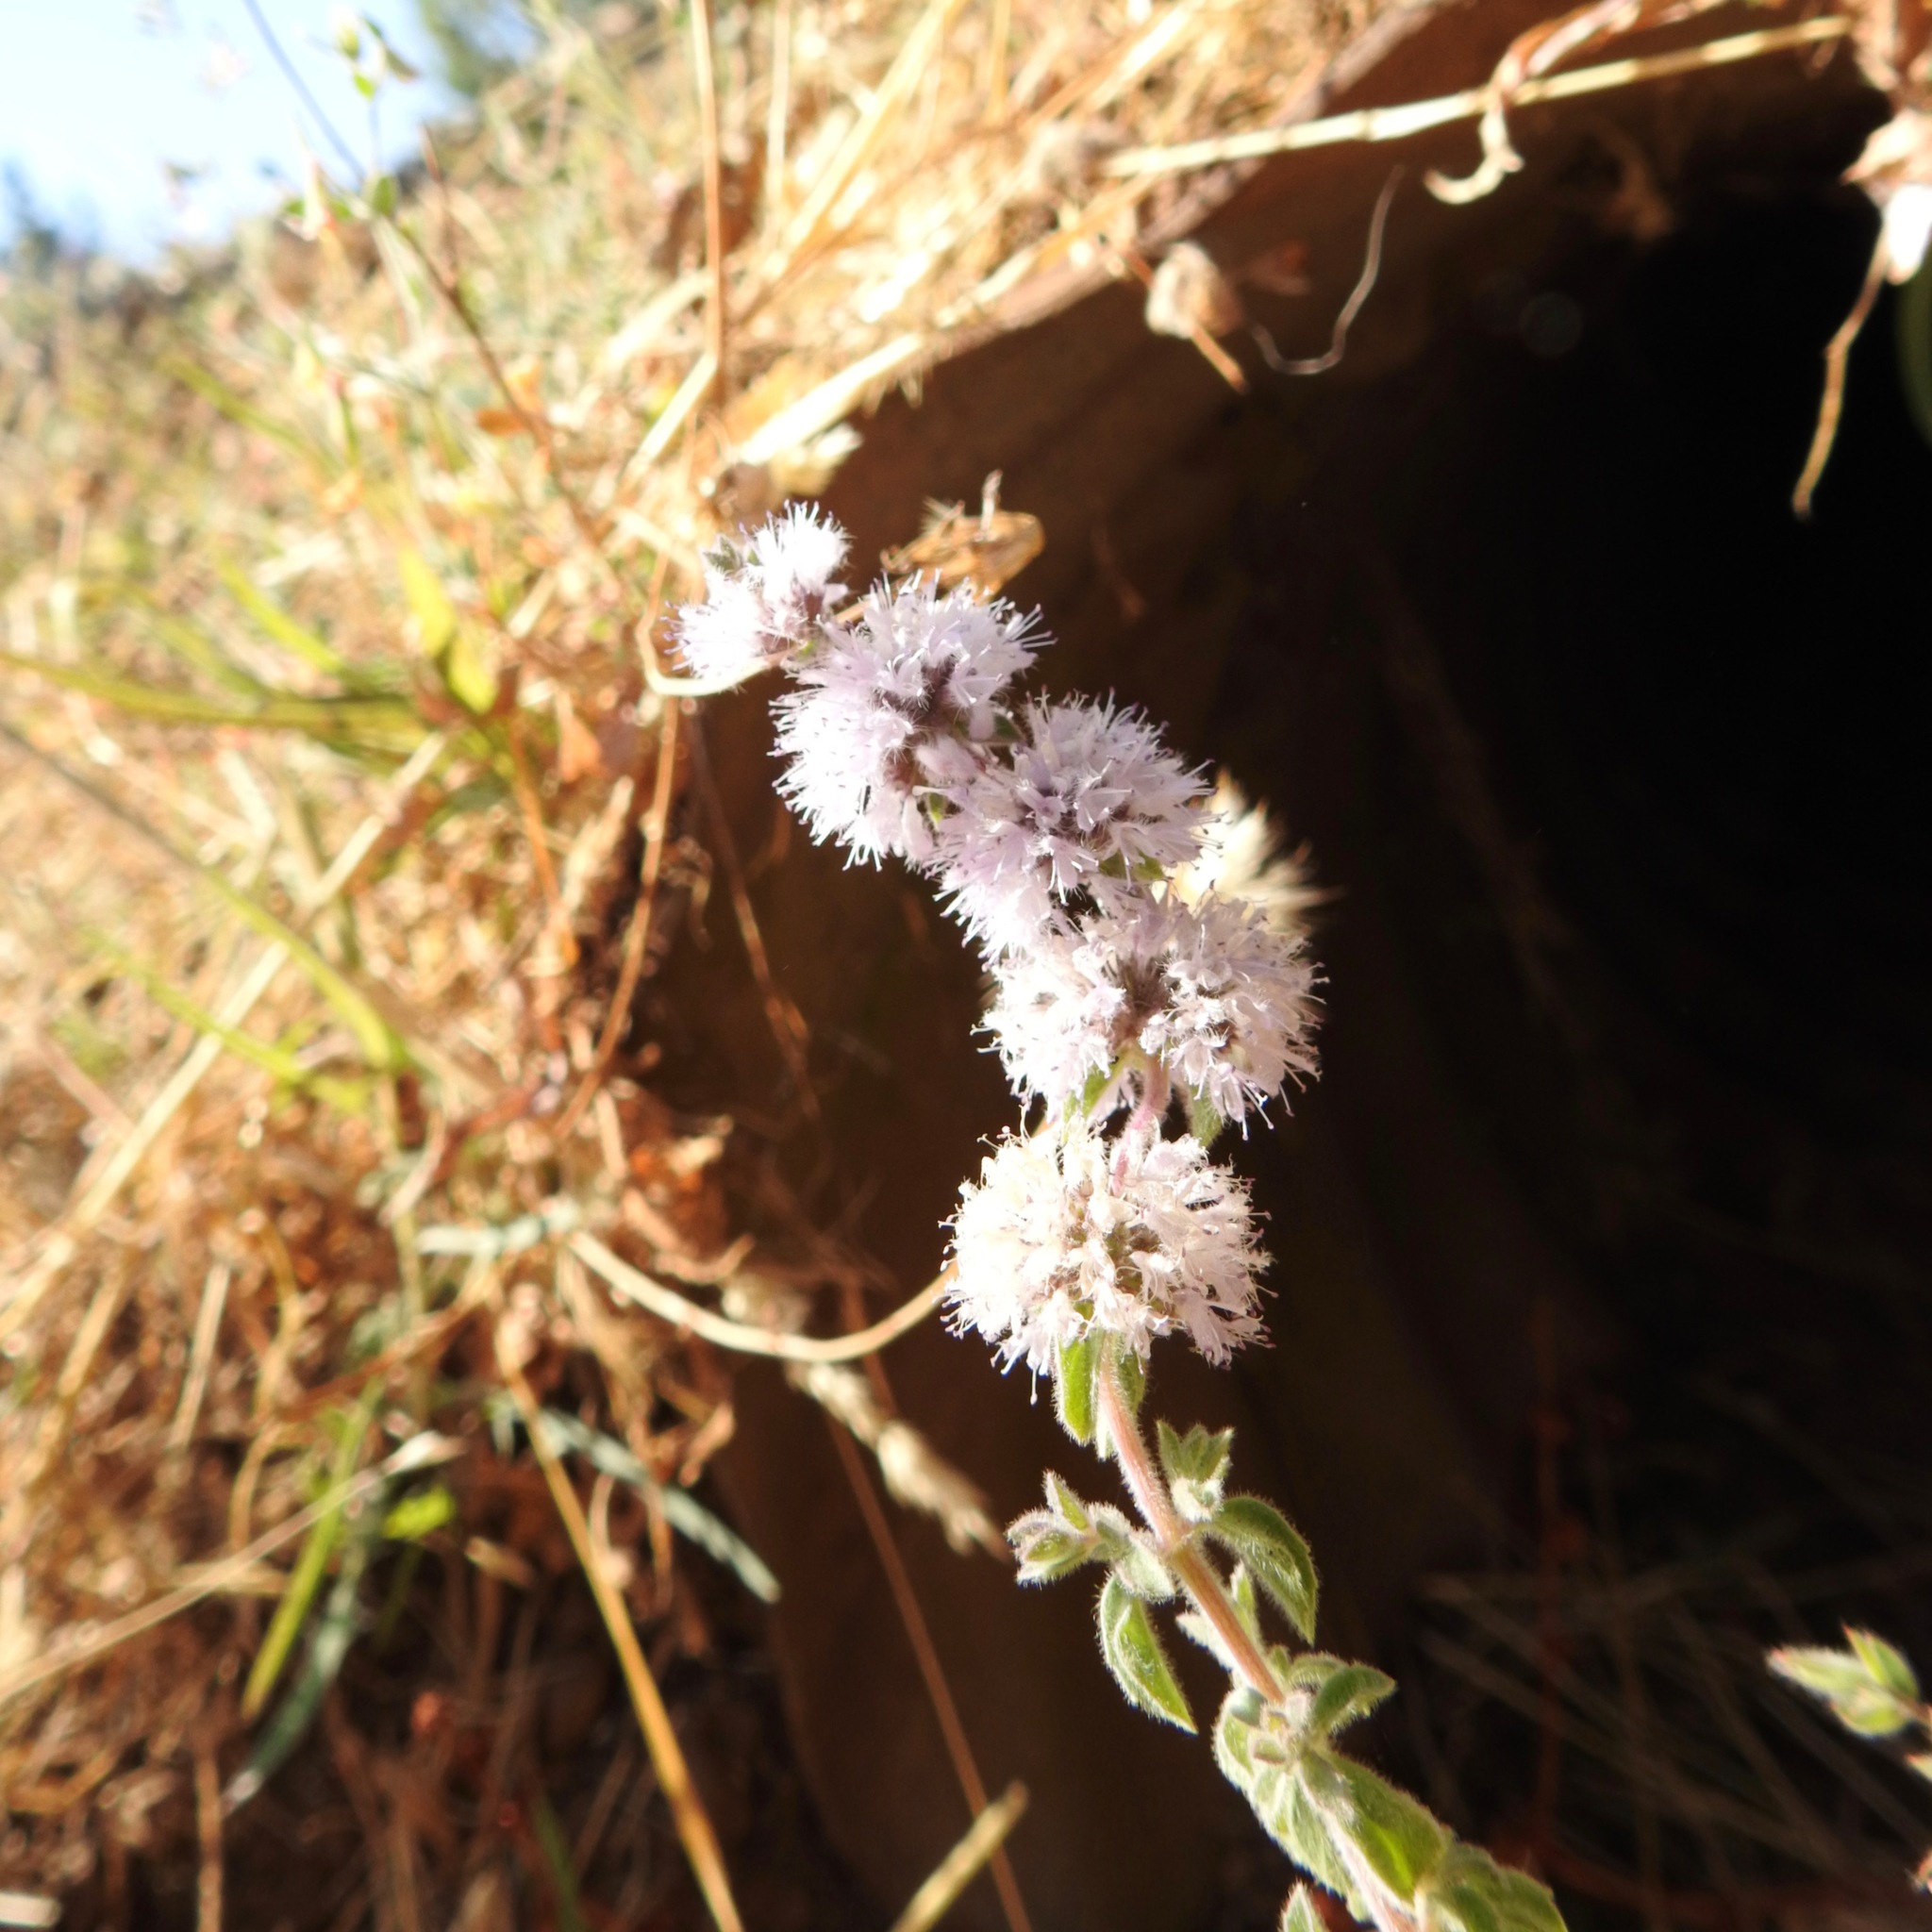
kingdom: Plantae
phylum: Tracheophyta
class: Magnoliopsida
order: Lamiales
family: Lamiaceae
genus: Mentha
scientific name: Mentha pulegium
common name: Pennyroyal
